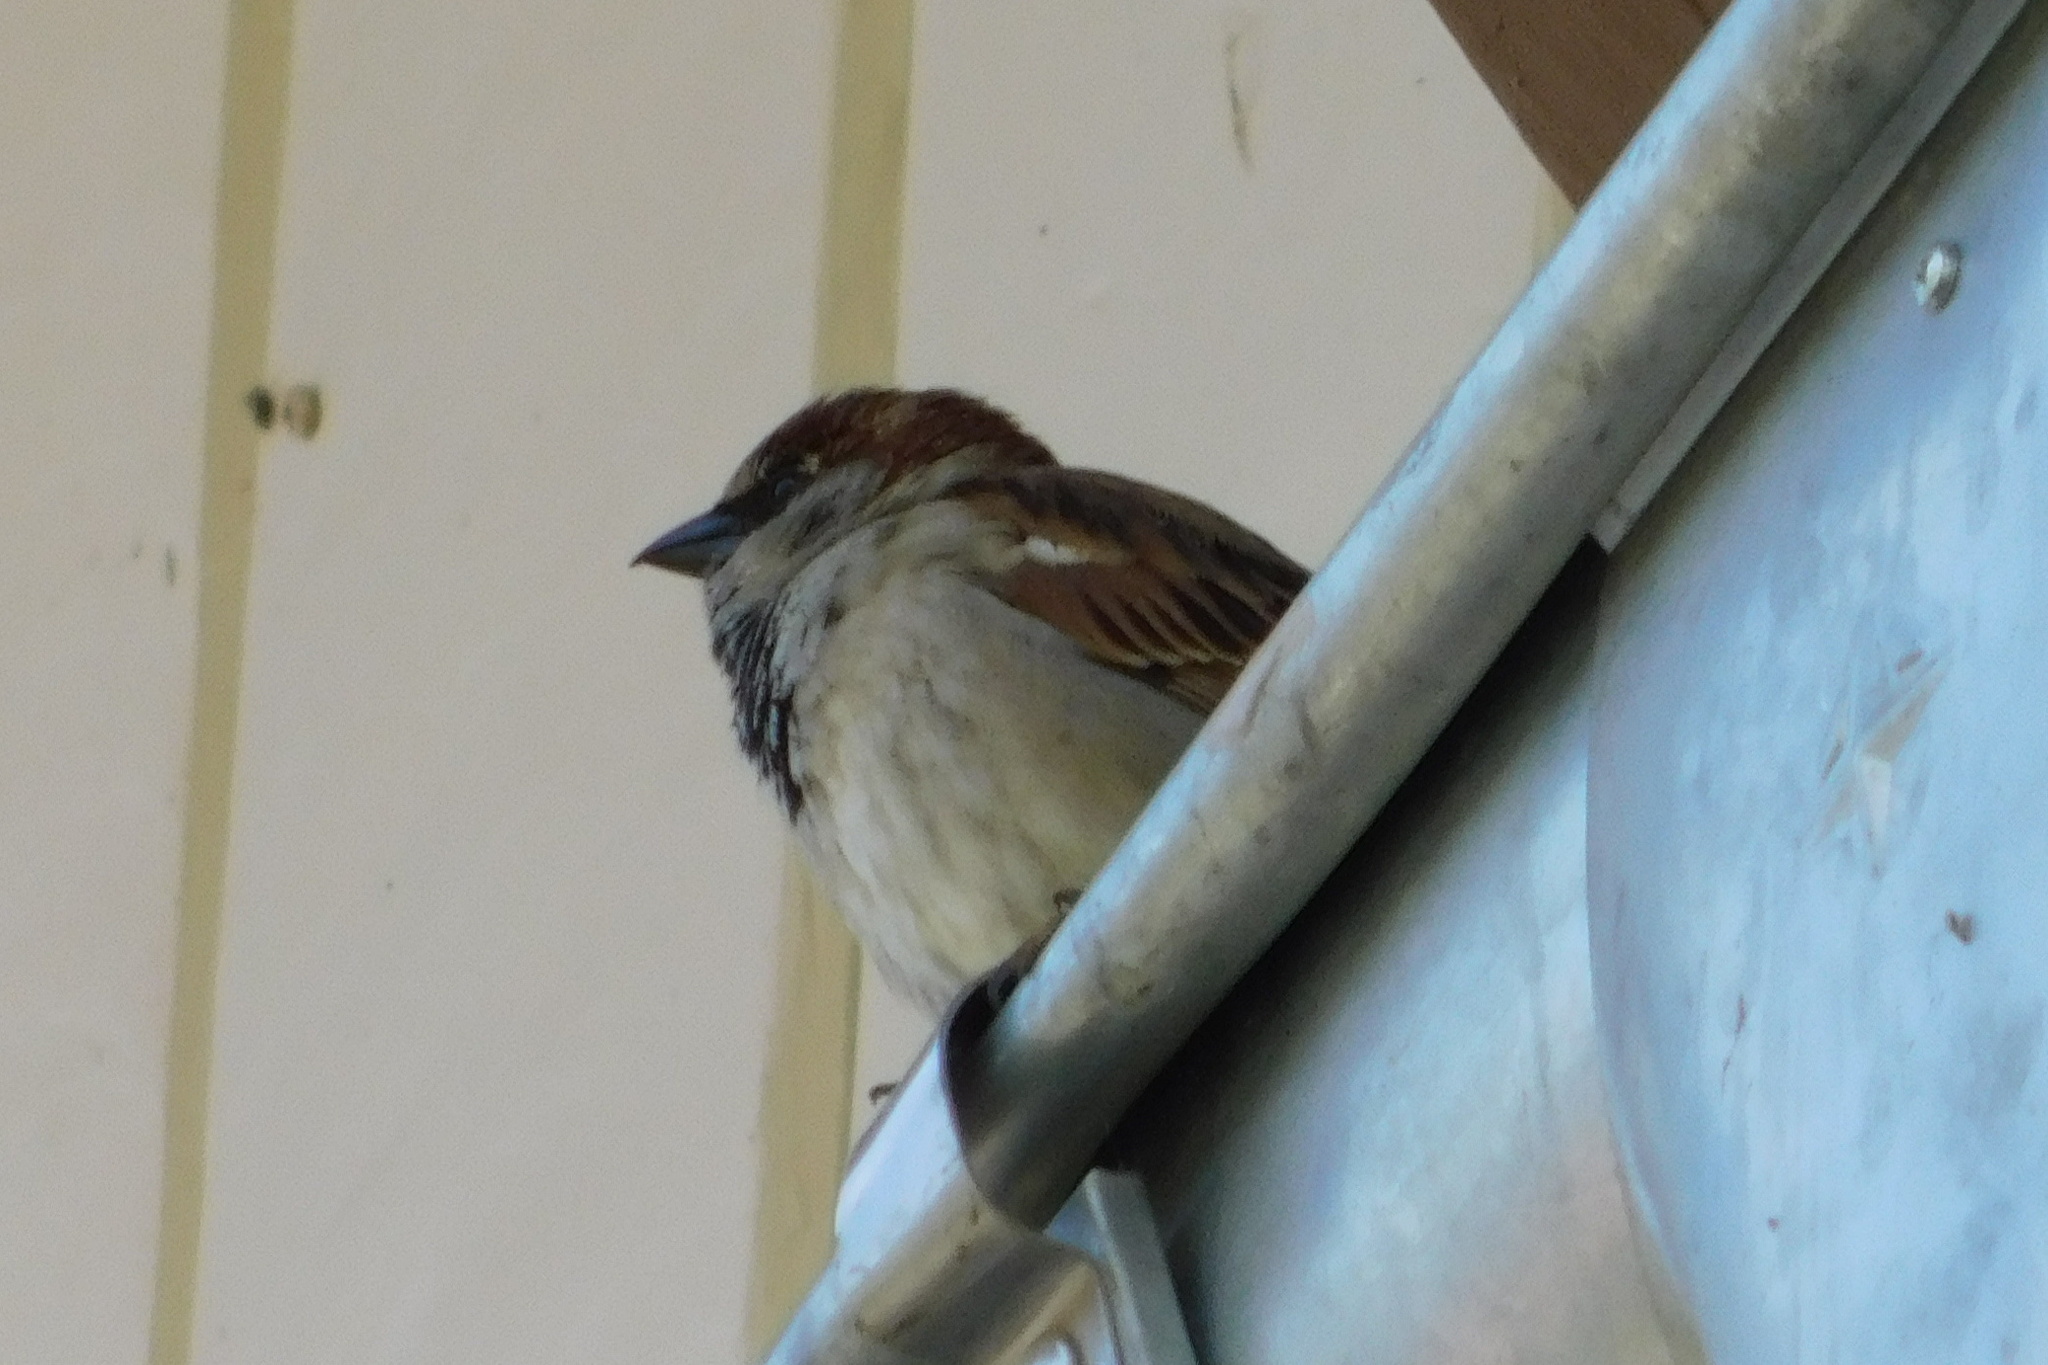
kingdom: Animalia
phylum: Chordata
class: Aves
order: Passeriformes
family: Passeridae
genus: Passer
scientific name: Passer domesticus
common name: House sparrow
